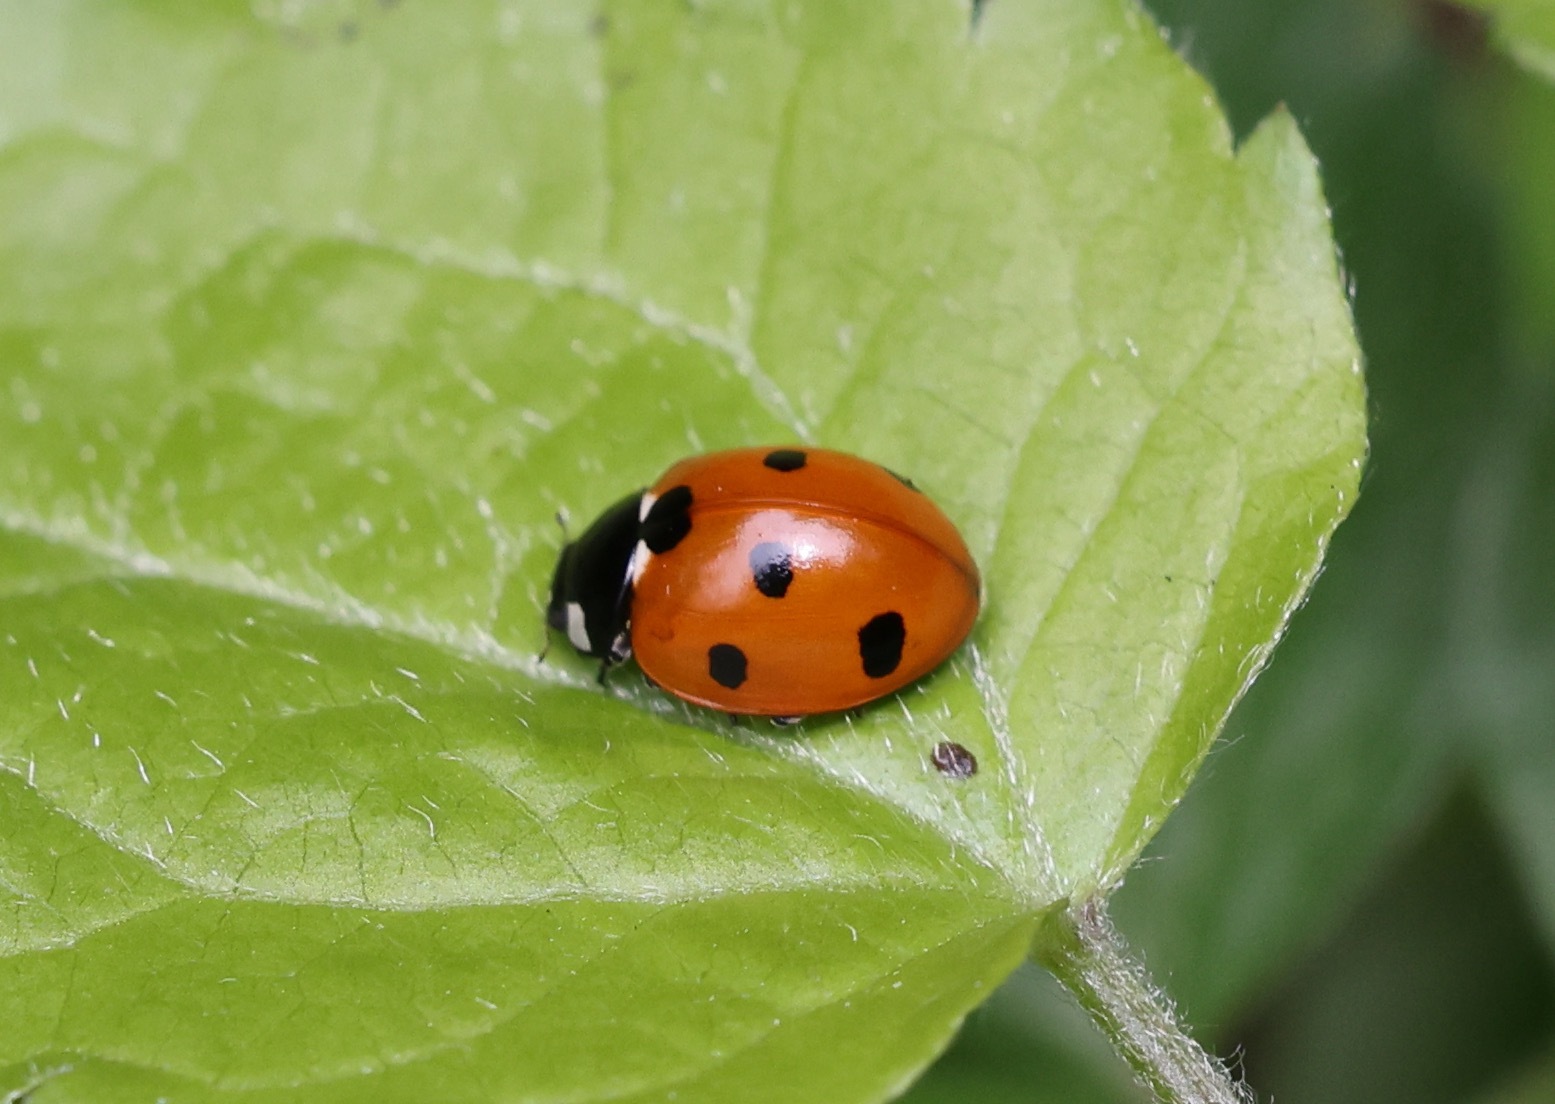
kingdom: Animalia
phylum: Arthropoda
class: Insecta
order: Coleoptera
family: Coccinellidae
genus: Coccinella
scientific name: Coccinella septempunctata
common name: Sevenspotted lady beetle
